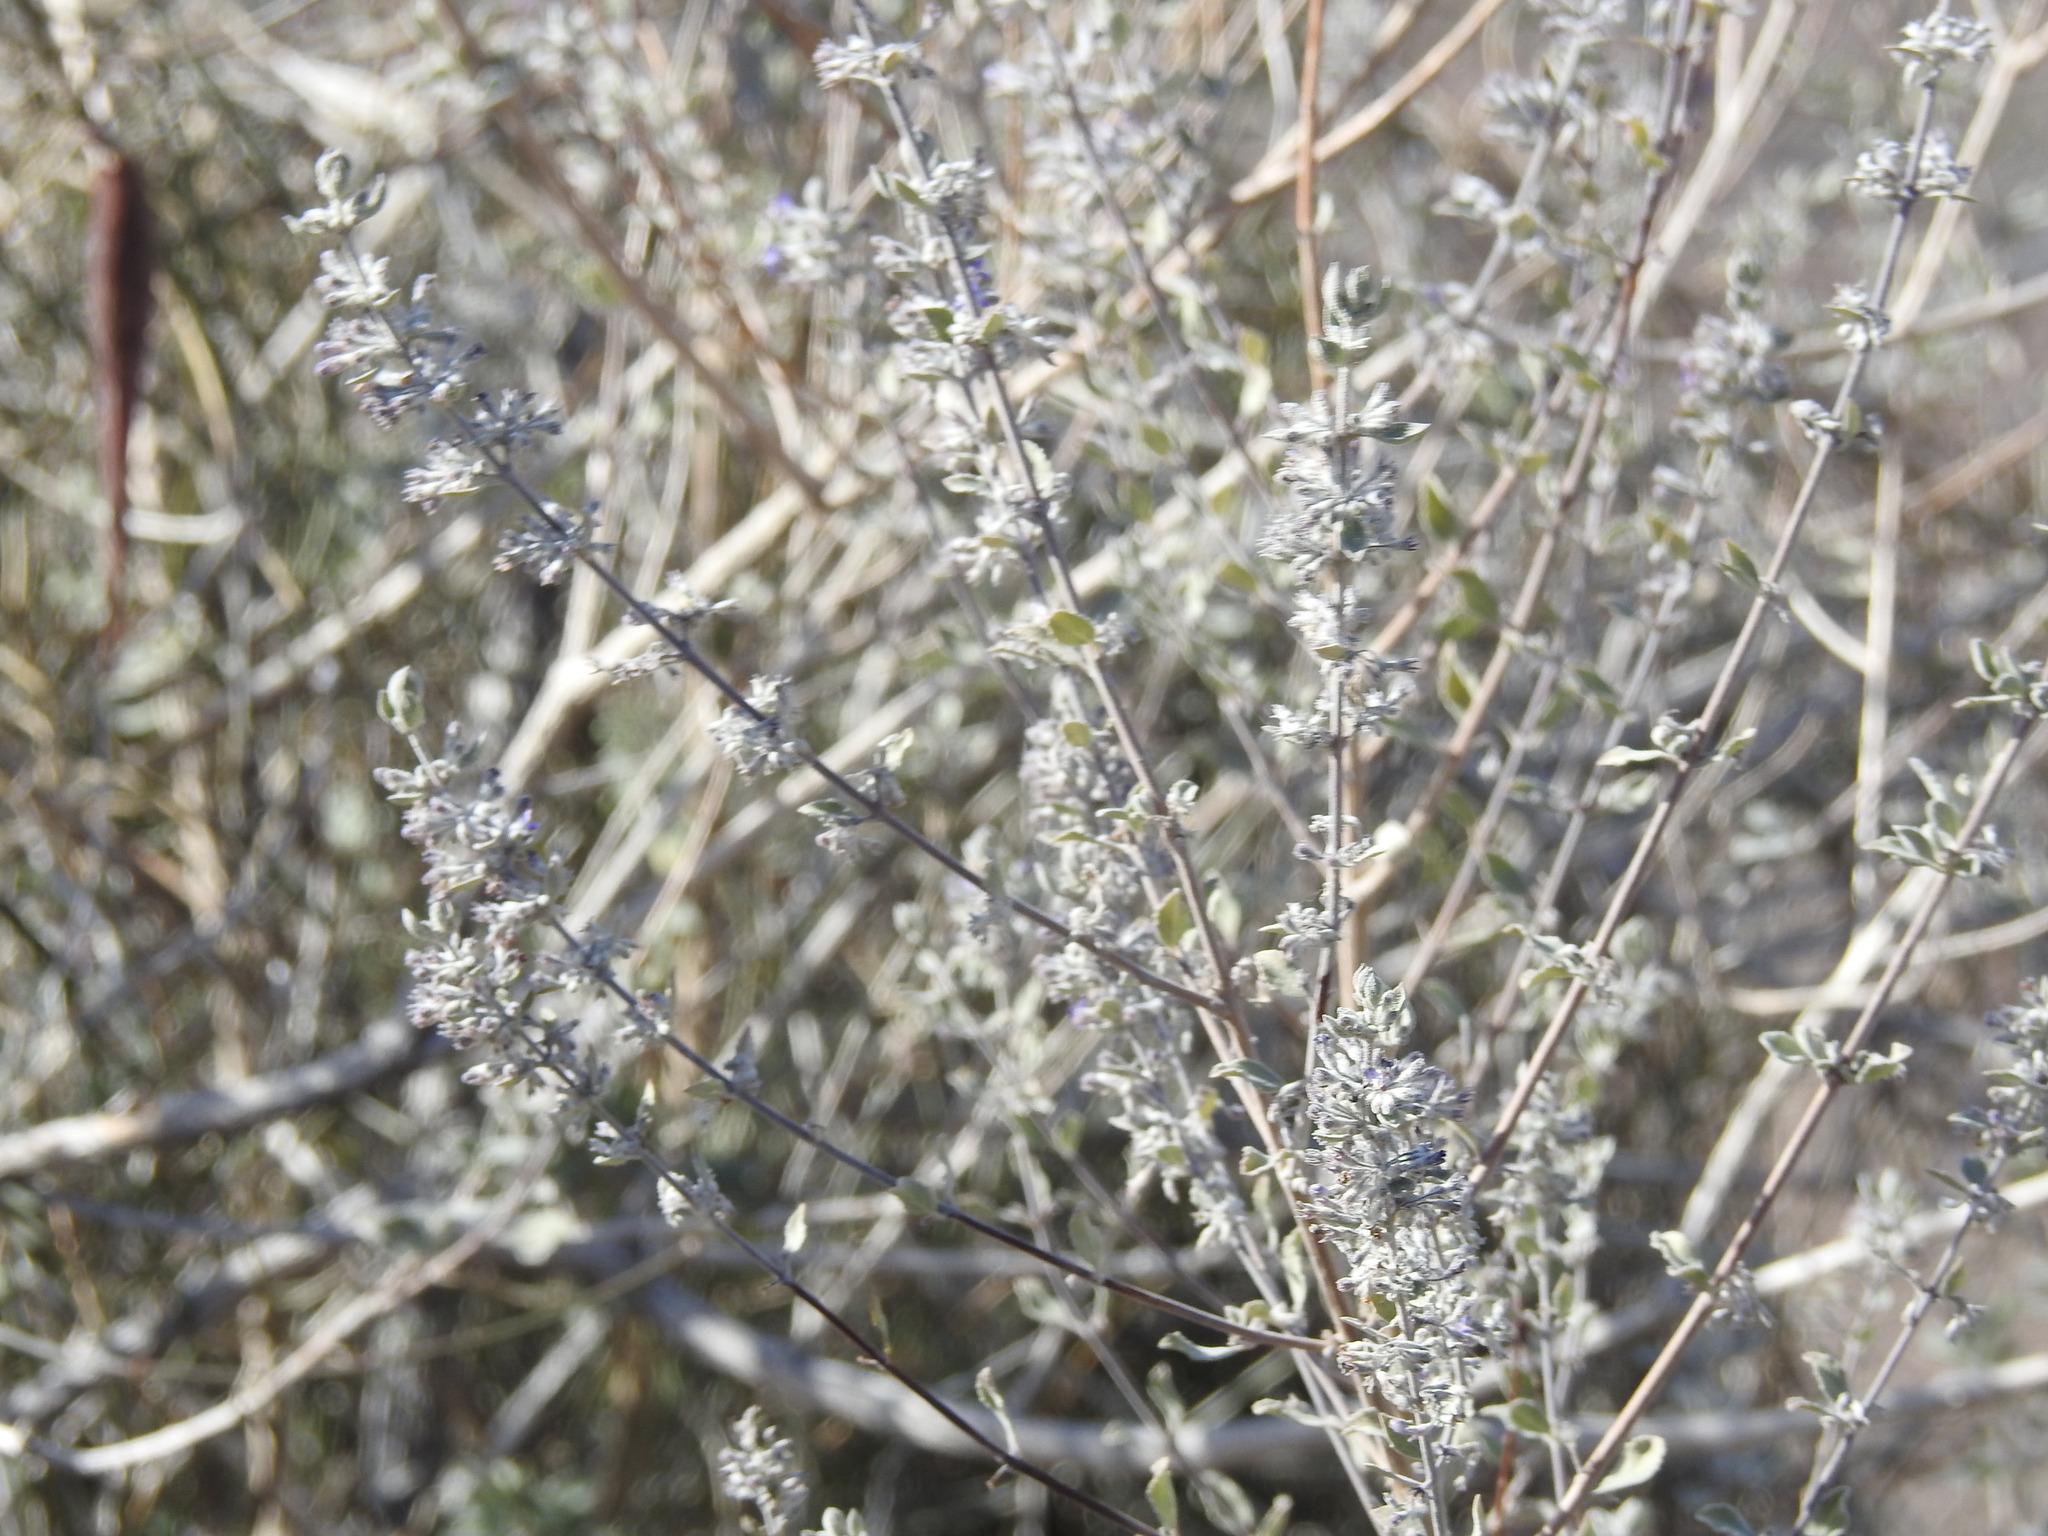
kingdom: Plantae
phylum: Tracheophyta
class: Magnoliopsida
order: Lamiales
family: Lamiaceae
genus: Condea
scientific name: Condea emoryi
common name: Chia
